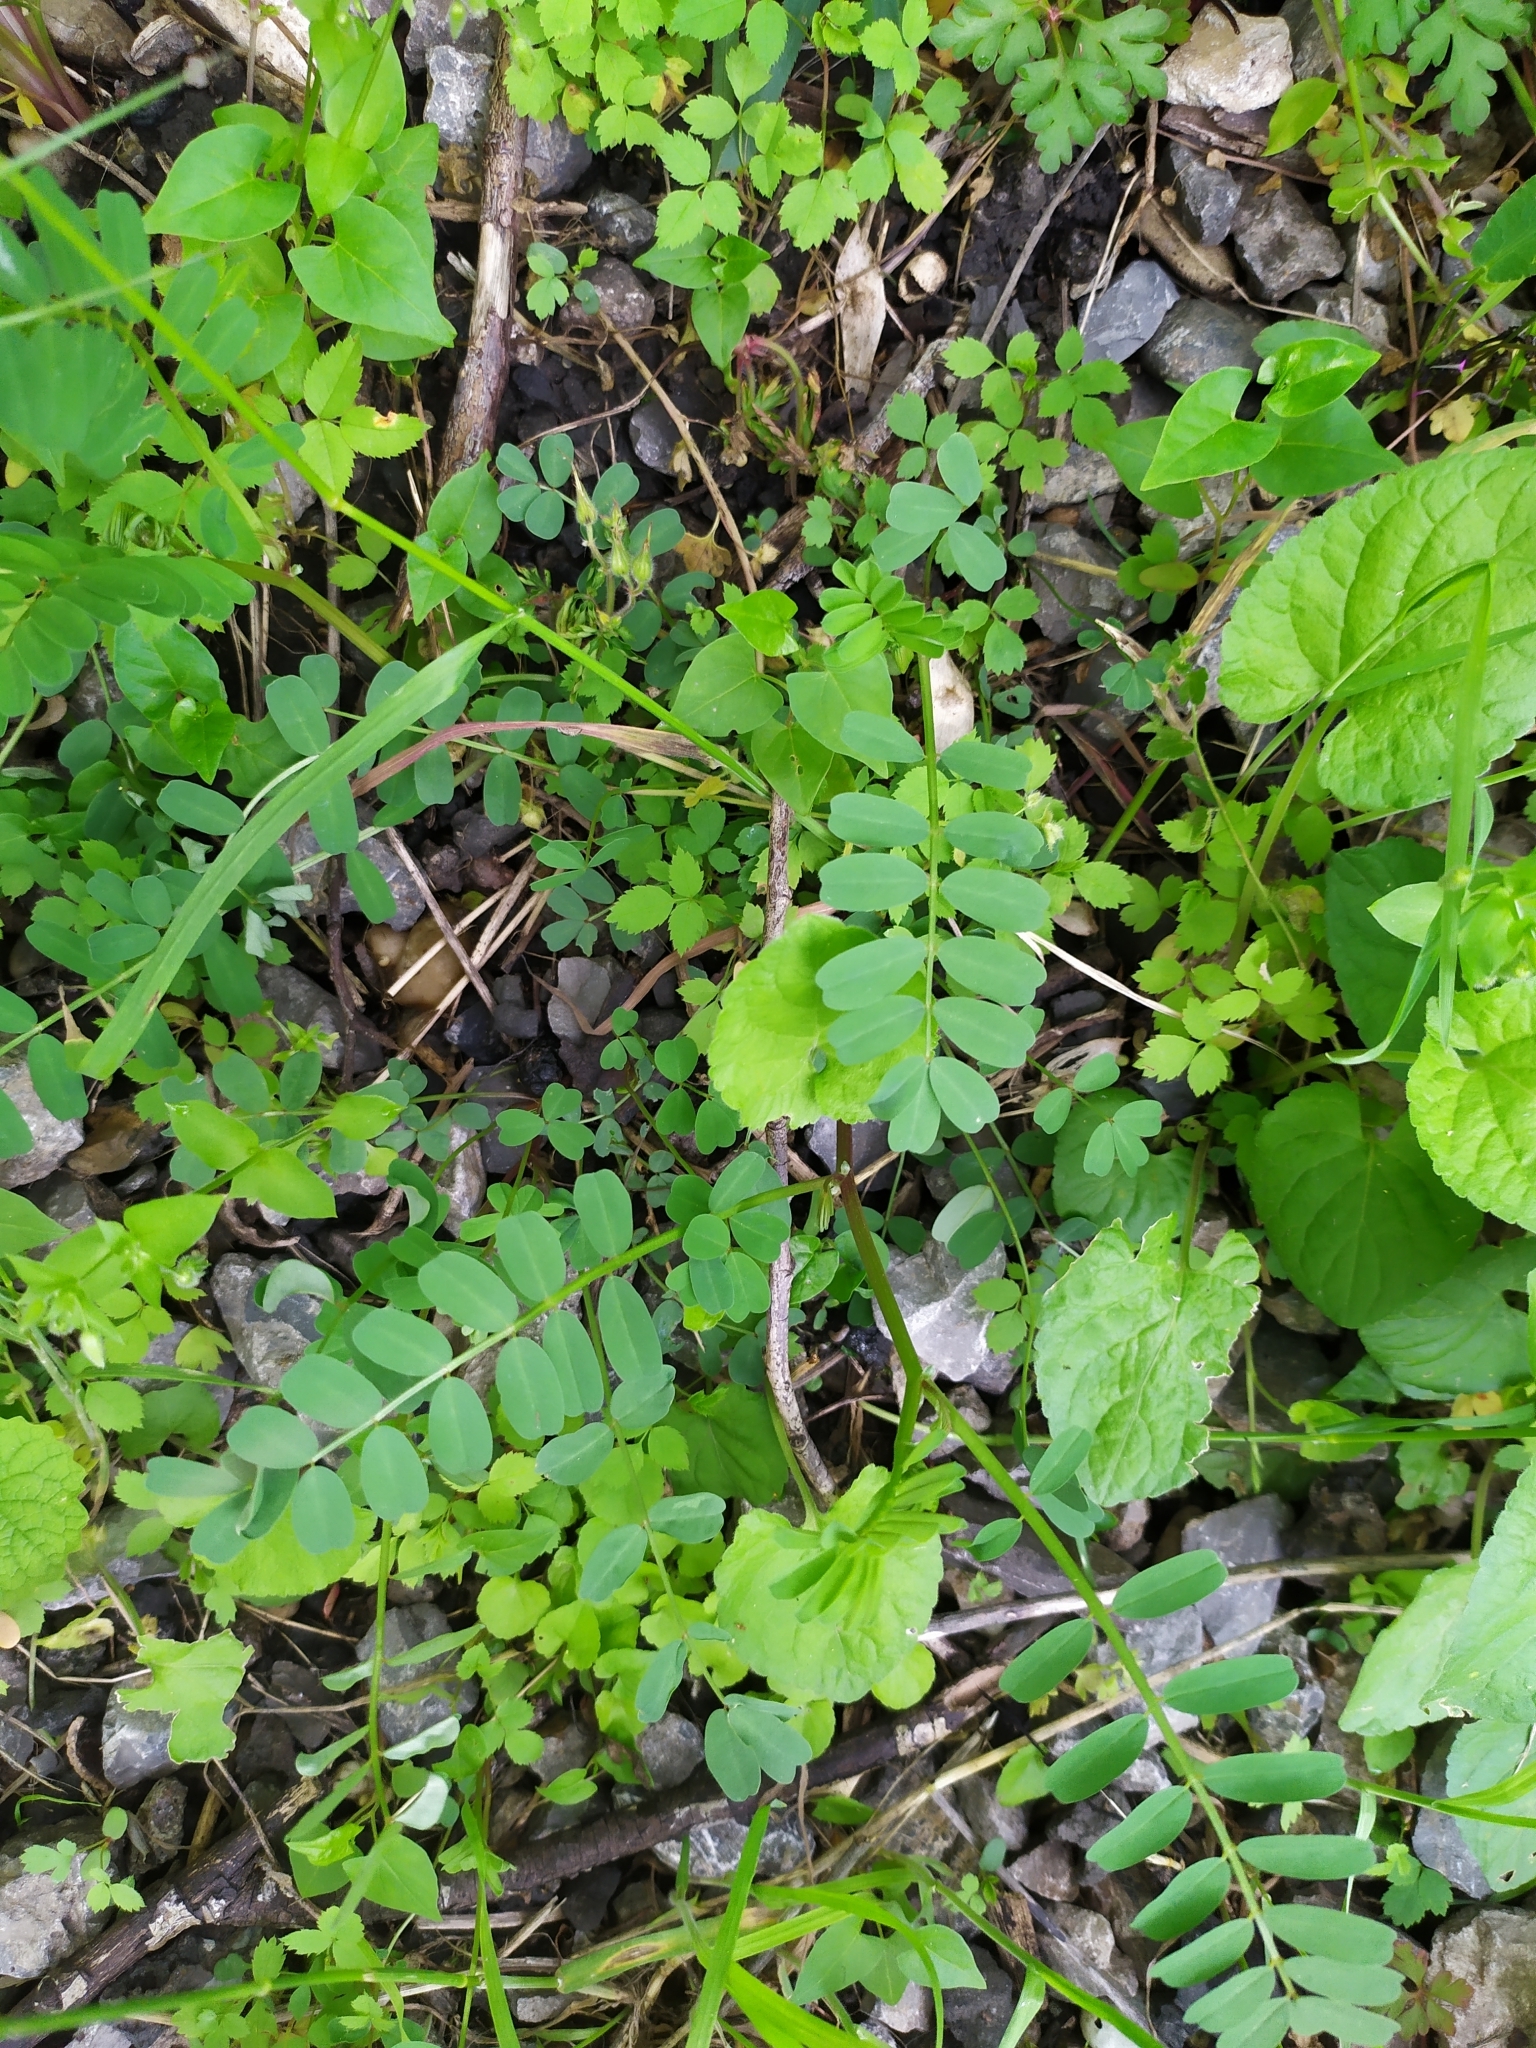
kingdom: Plantae
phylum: Tracheophyta
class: Magnoliopsida
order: Fabales
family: Fabaceae
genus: Coronilla
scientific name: Coronilla varia
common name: Crownvetch
